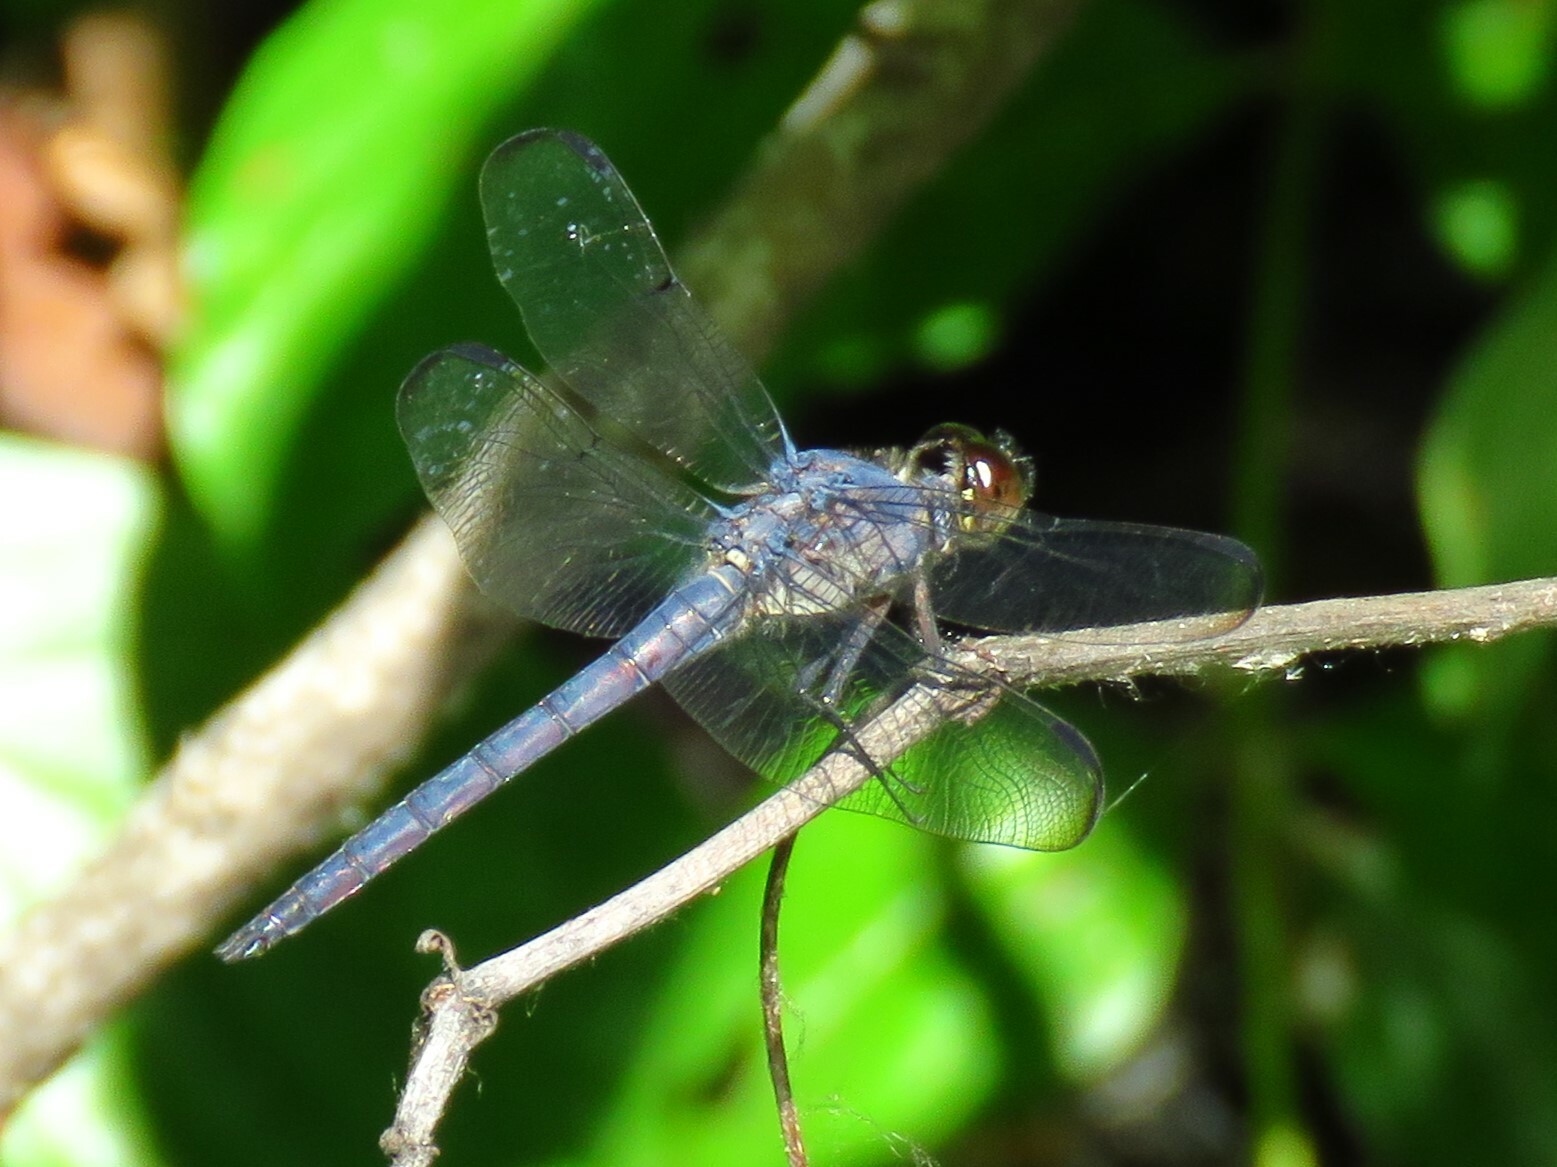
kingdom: Animalia
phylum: Arthropoda
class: Insecta
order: Odonata
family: Libellulidae
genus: Libellula
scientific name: Libellula incesta
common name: Slaty skimmer
